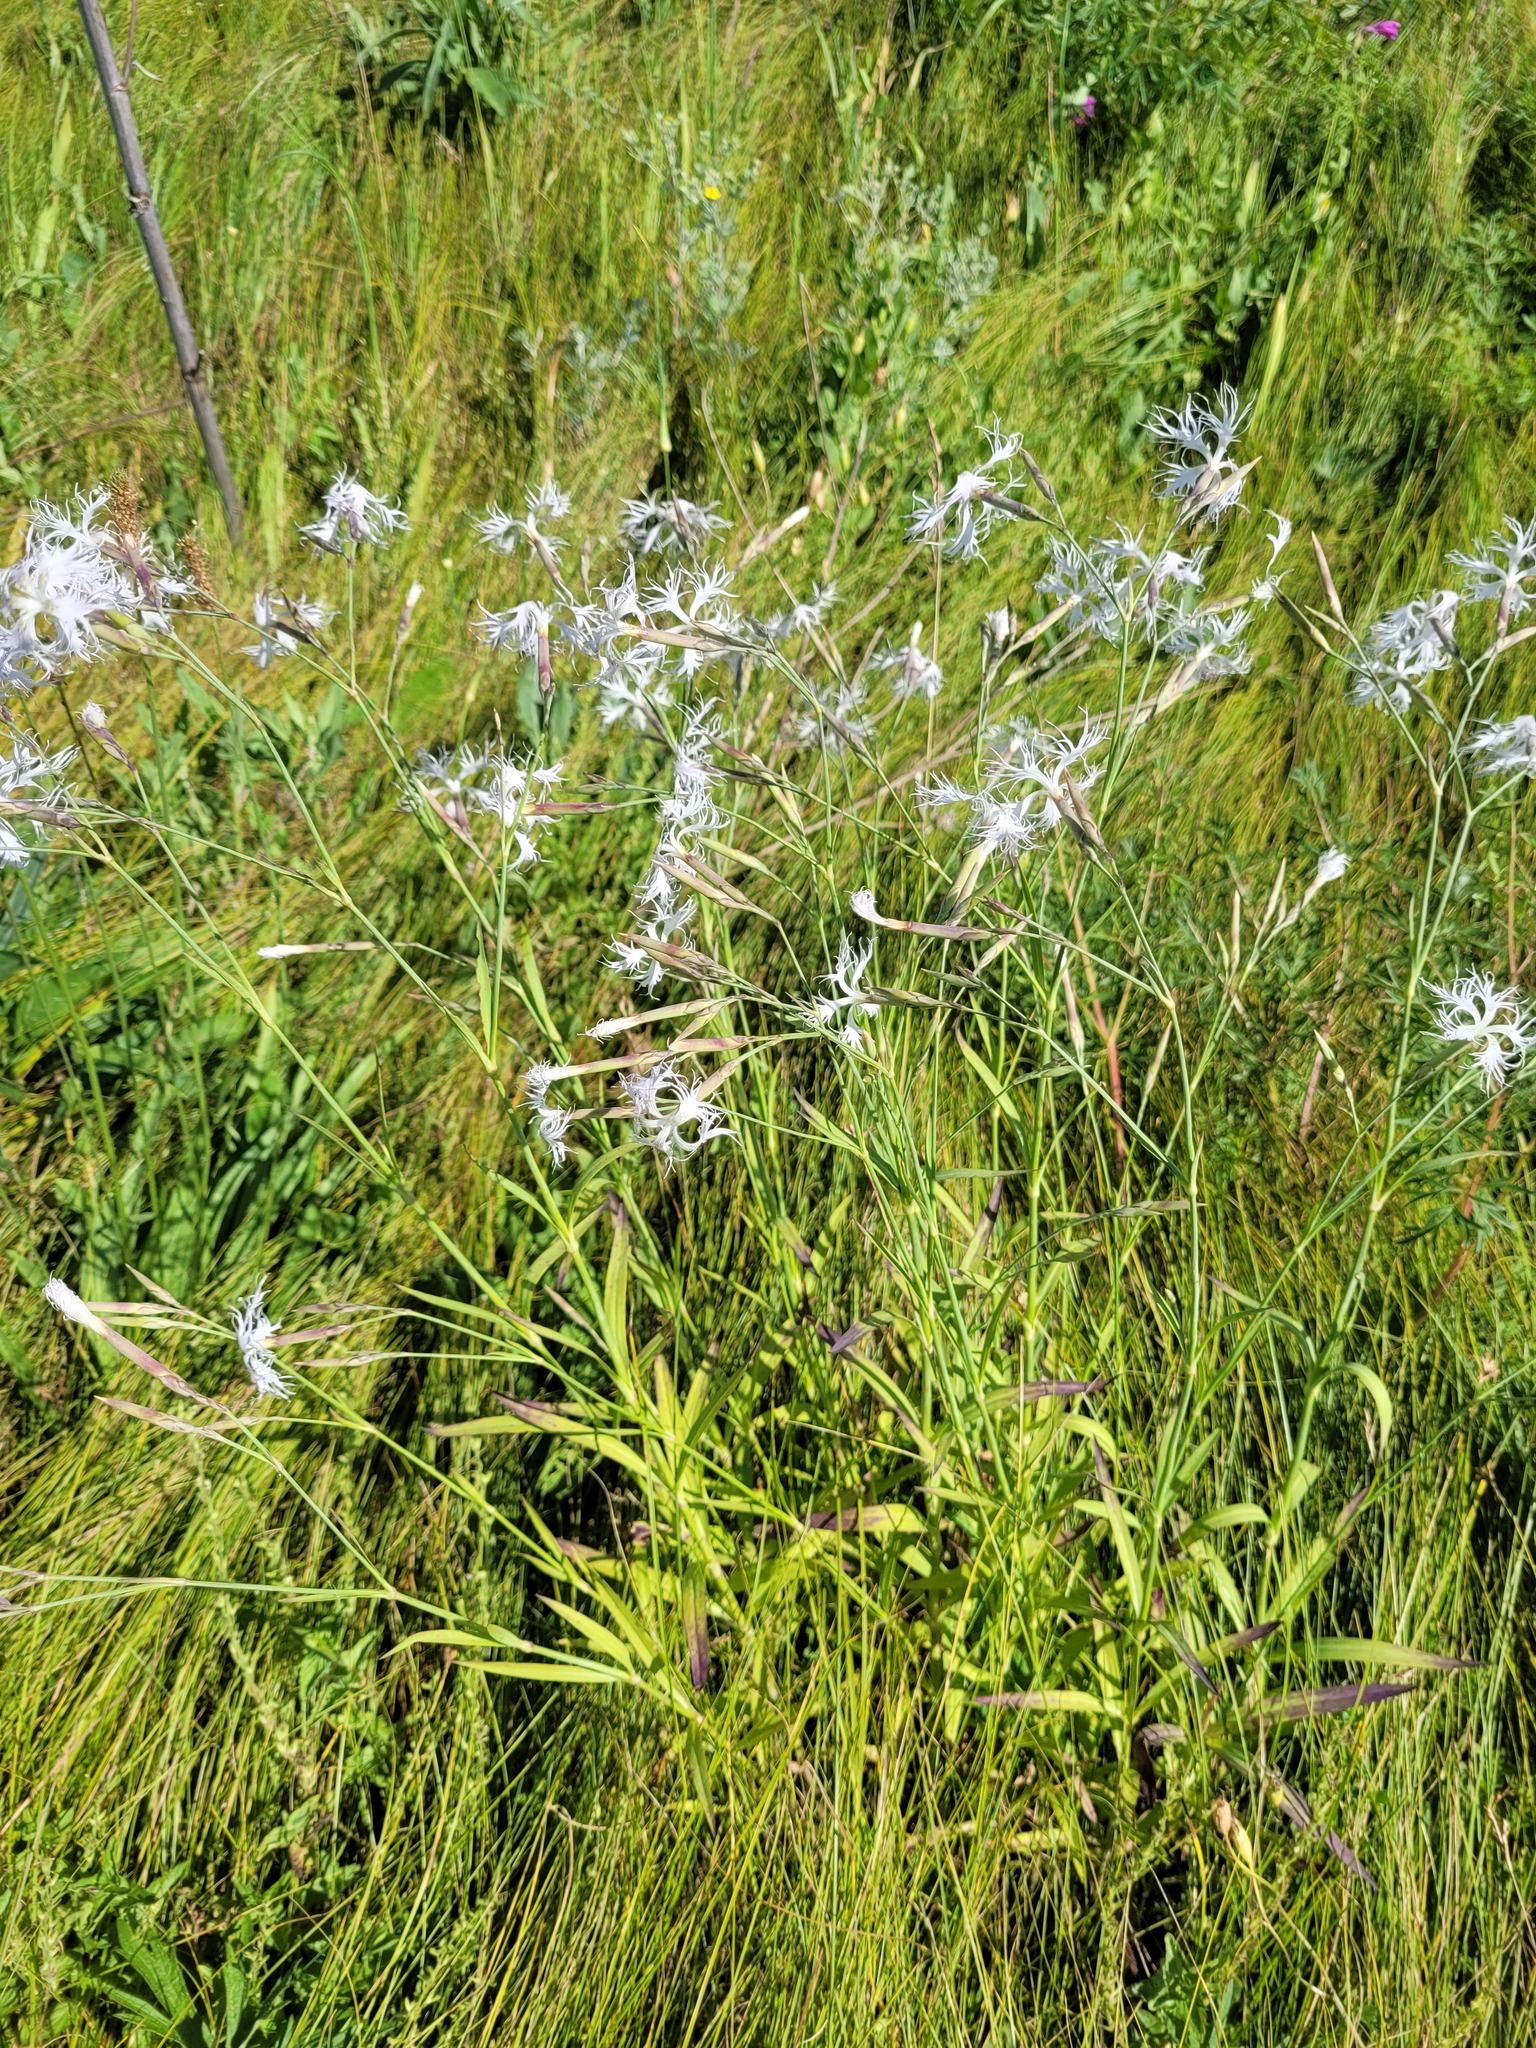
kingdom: Plantae
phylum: Tracheophyta
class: Magnoliopsida
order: Caryophyllales
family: Caryophyllaceae
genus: Dianthus
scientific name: Dianthus superbus
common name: Fringed pink
